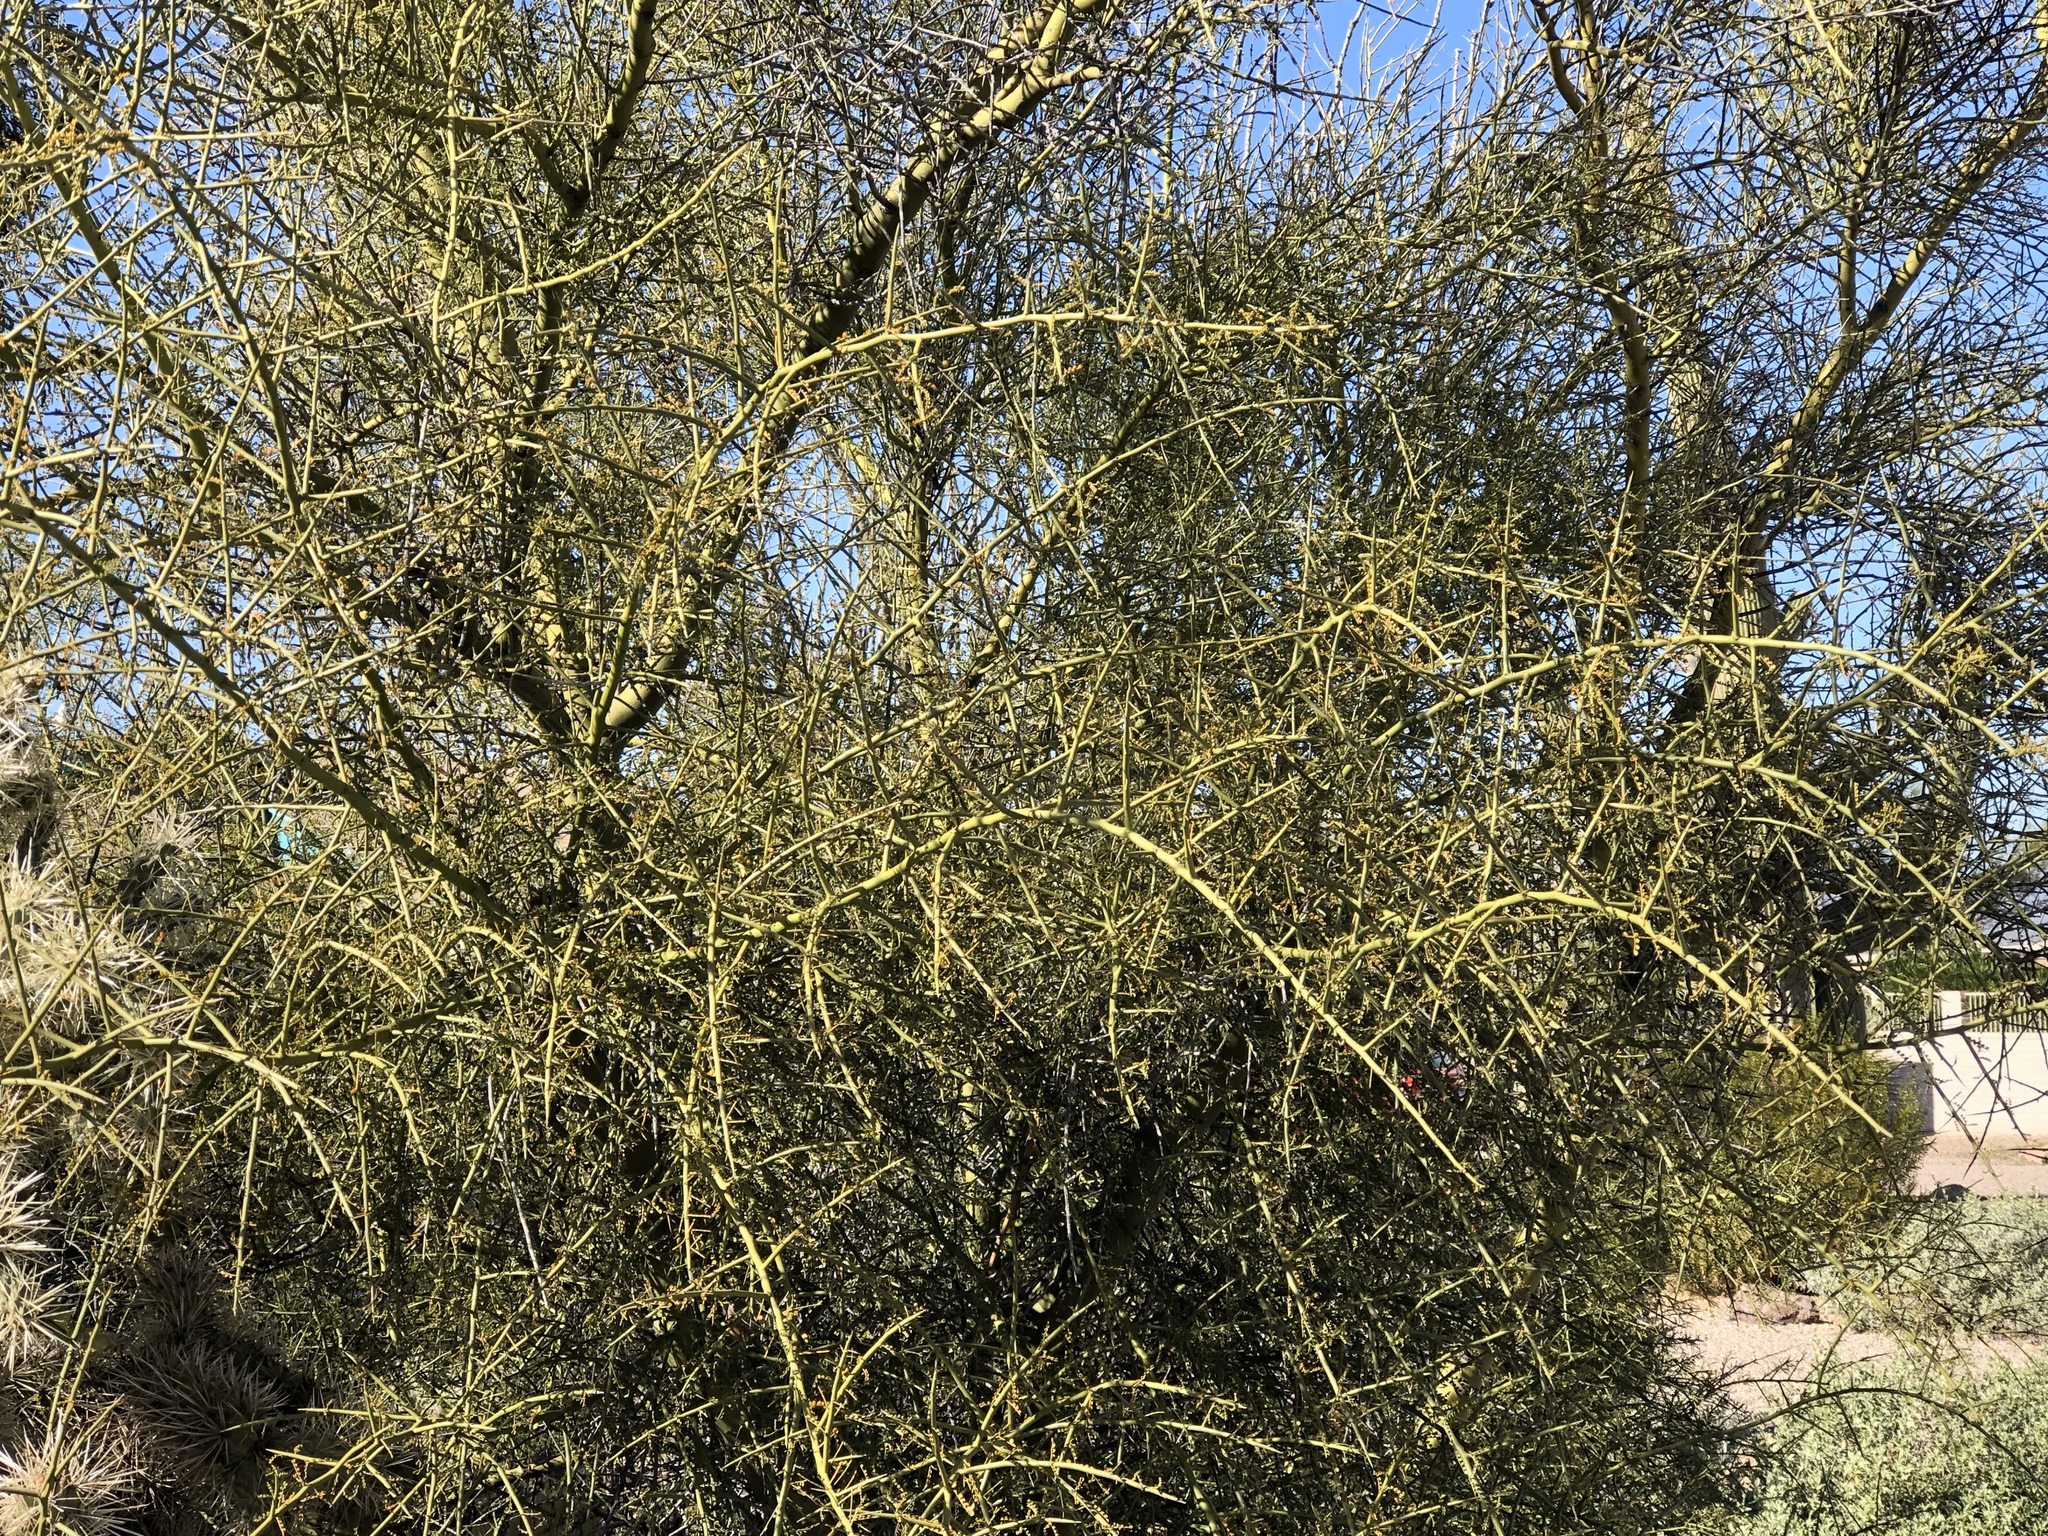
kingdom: Plantae
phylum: Tracheophyta
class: Magnoliopsida
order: Fabales
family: Fabaceae
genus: Parkinsonia
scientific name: Parkinsonia microphylla
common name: Yellow paloverde
